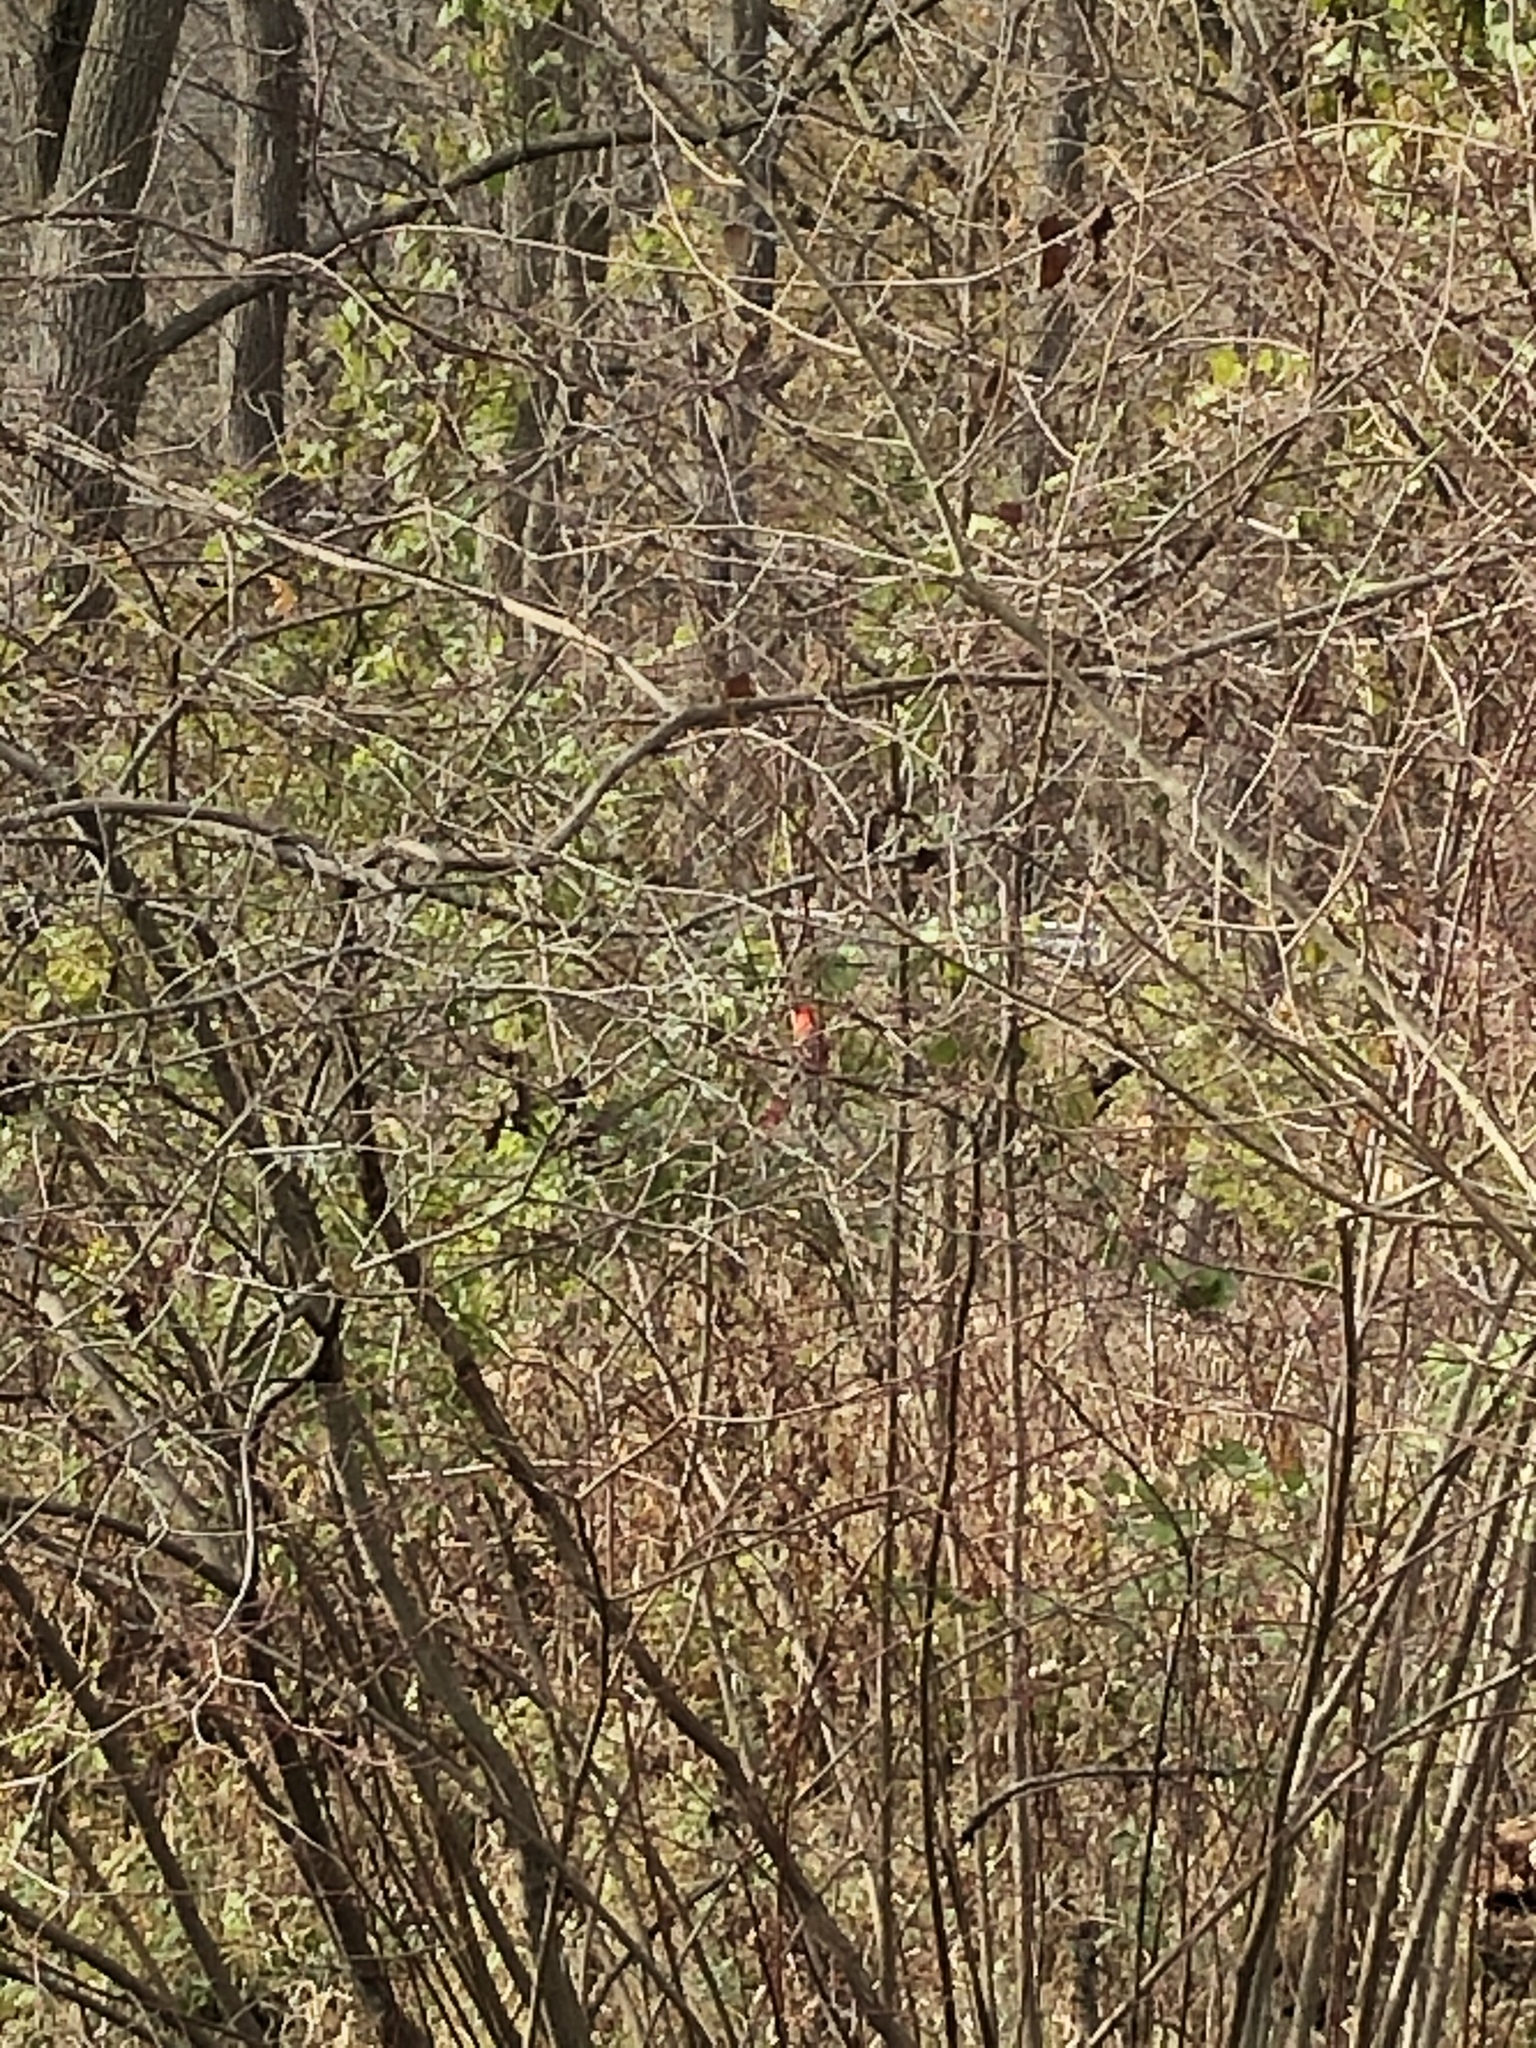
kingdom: Animalia
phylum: Chordata
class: Aves
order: Passeriformes
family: Cardinalidae
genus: Cardinalis
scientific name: Cardinalis cardinalis
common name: Northern cardinal
